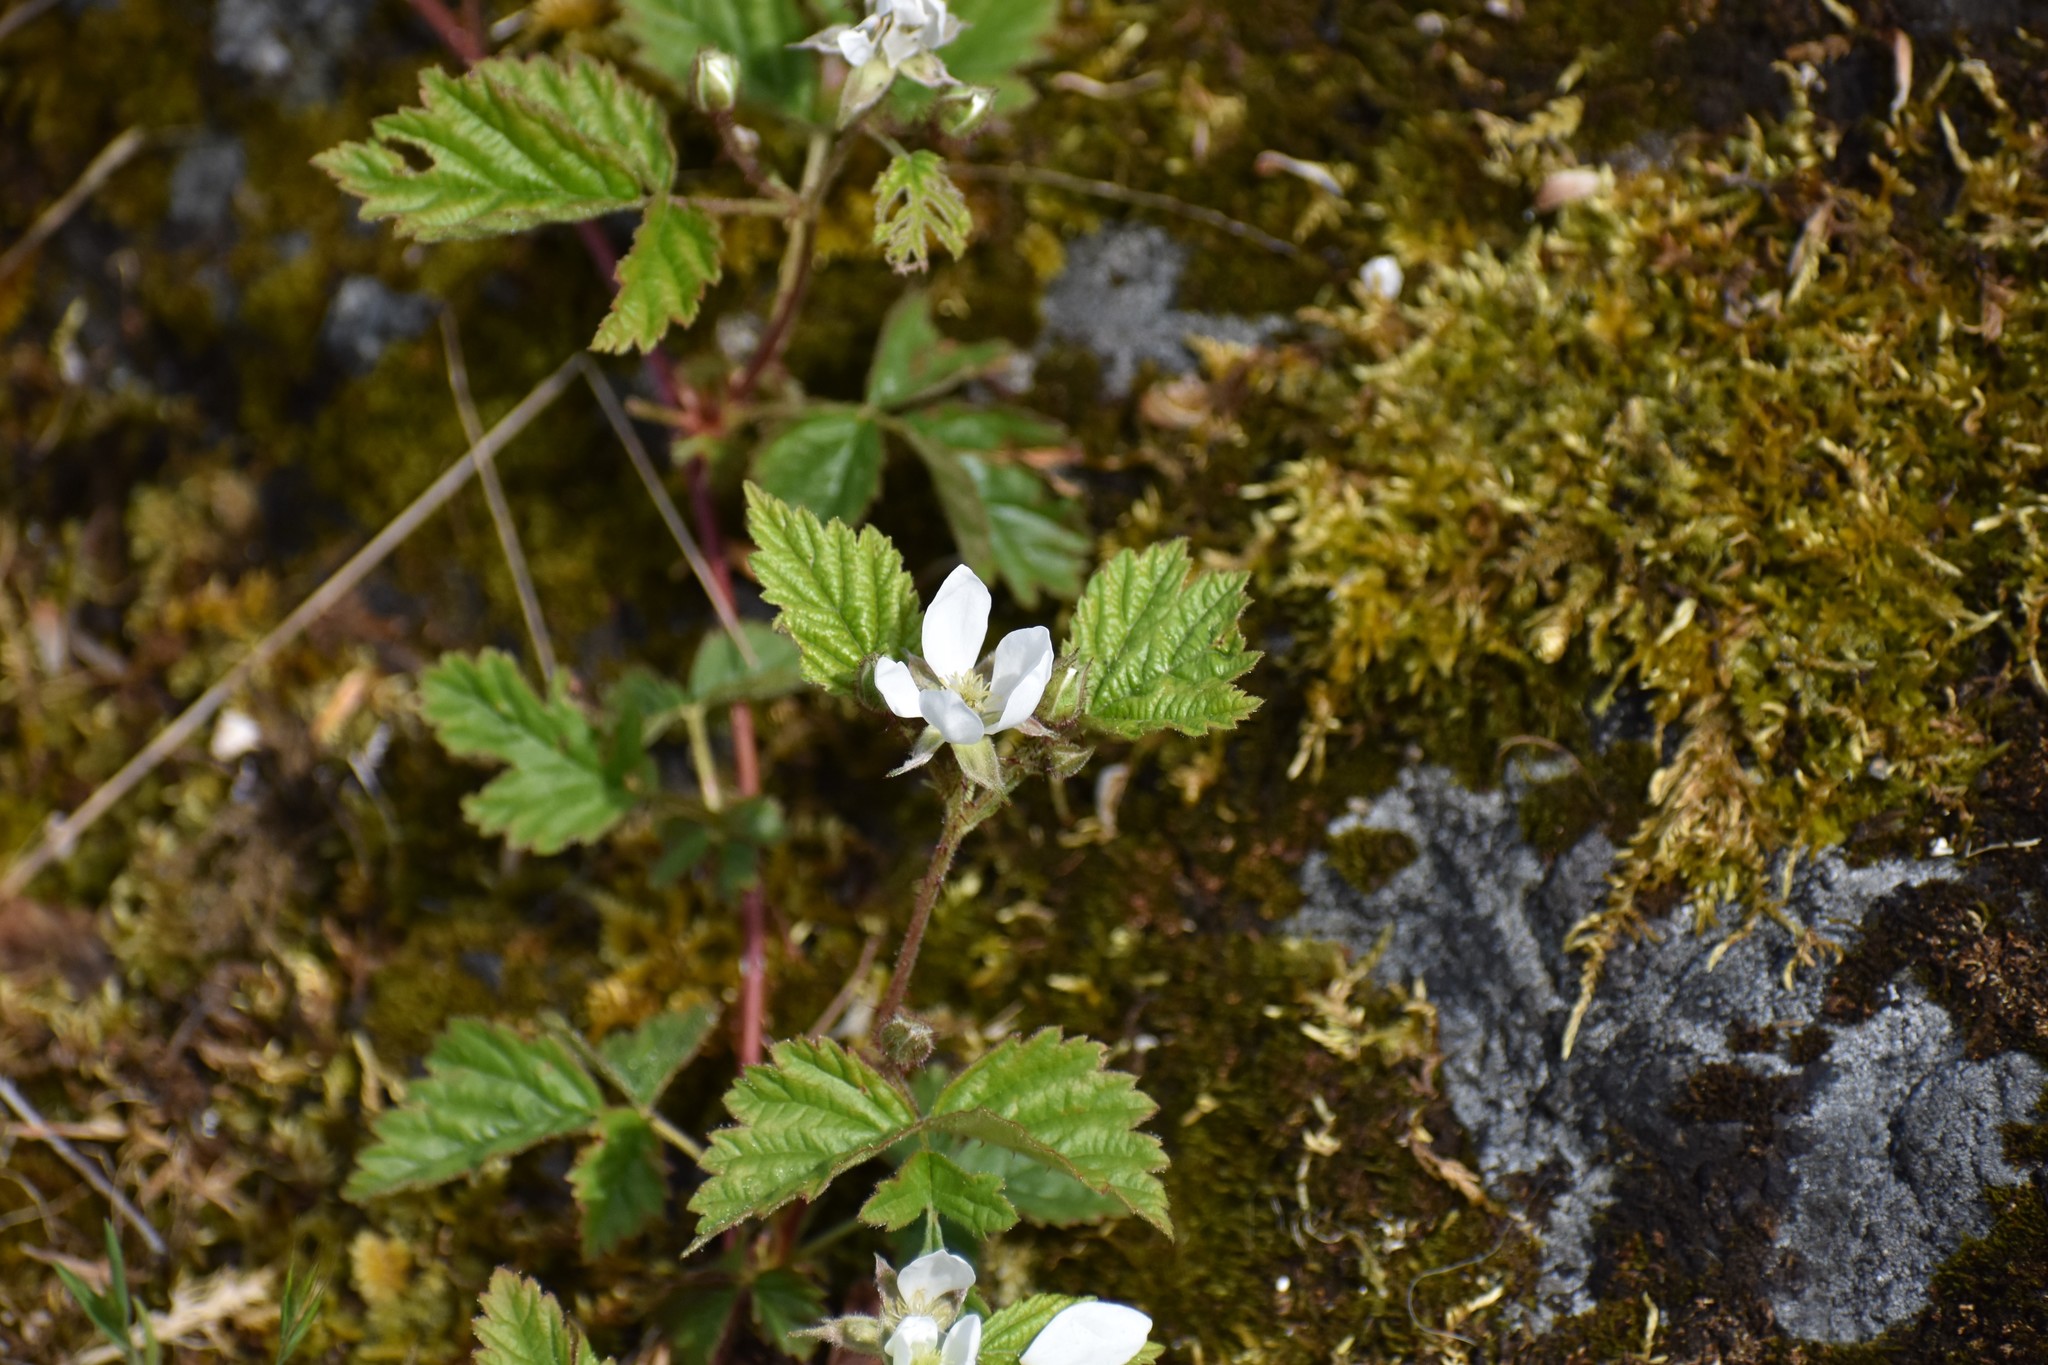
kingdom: Plantae
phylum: Tracheophyta
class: Magnoliopsida
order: Rosales
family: Rosaceae
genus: Rubus
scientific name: Rubus ursinus
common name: Pacific blackberry
